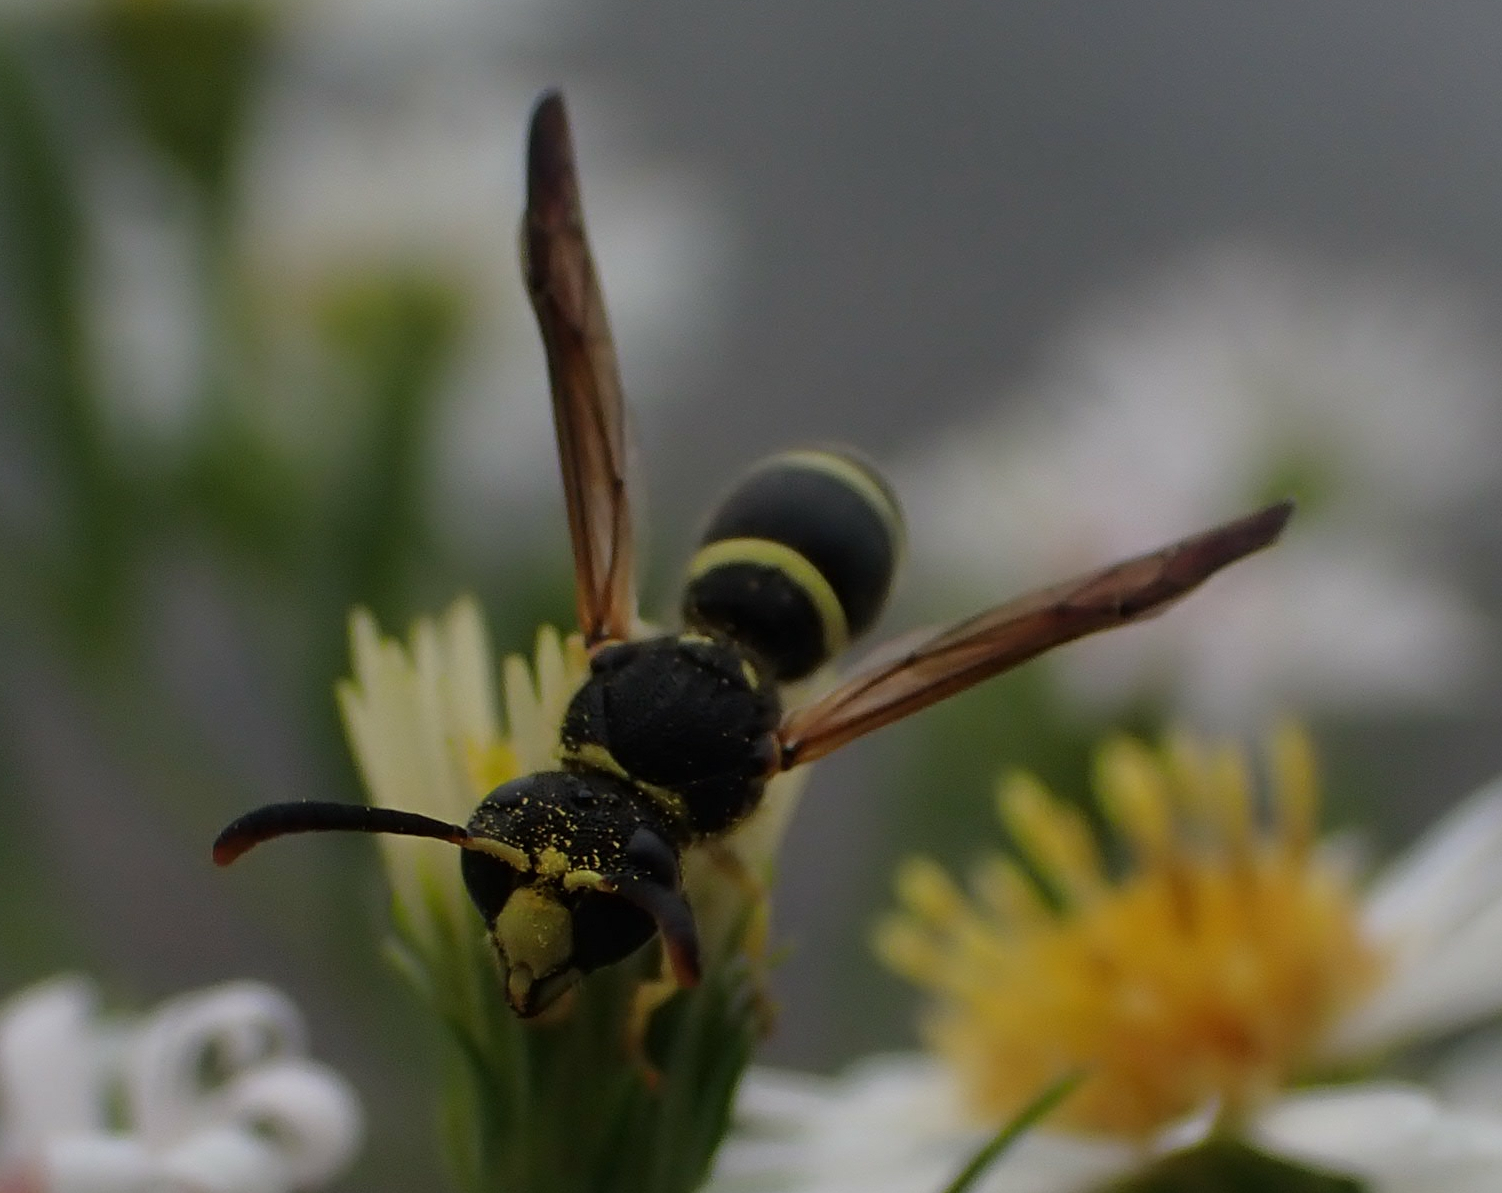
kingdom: Animalia
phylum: Arthropoda
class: Insecta
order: Hymenoptera
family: Vespidae
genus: Ancistrocerus
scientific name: Ancistrocerus
